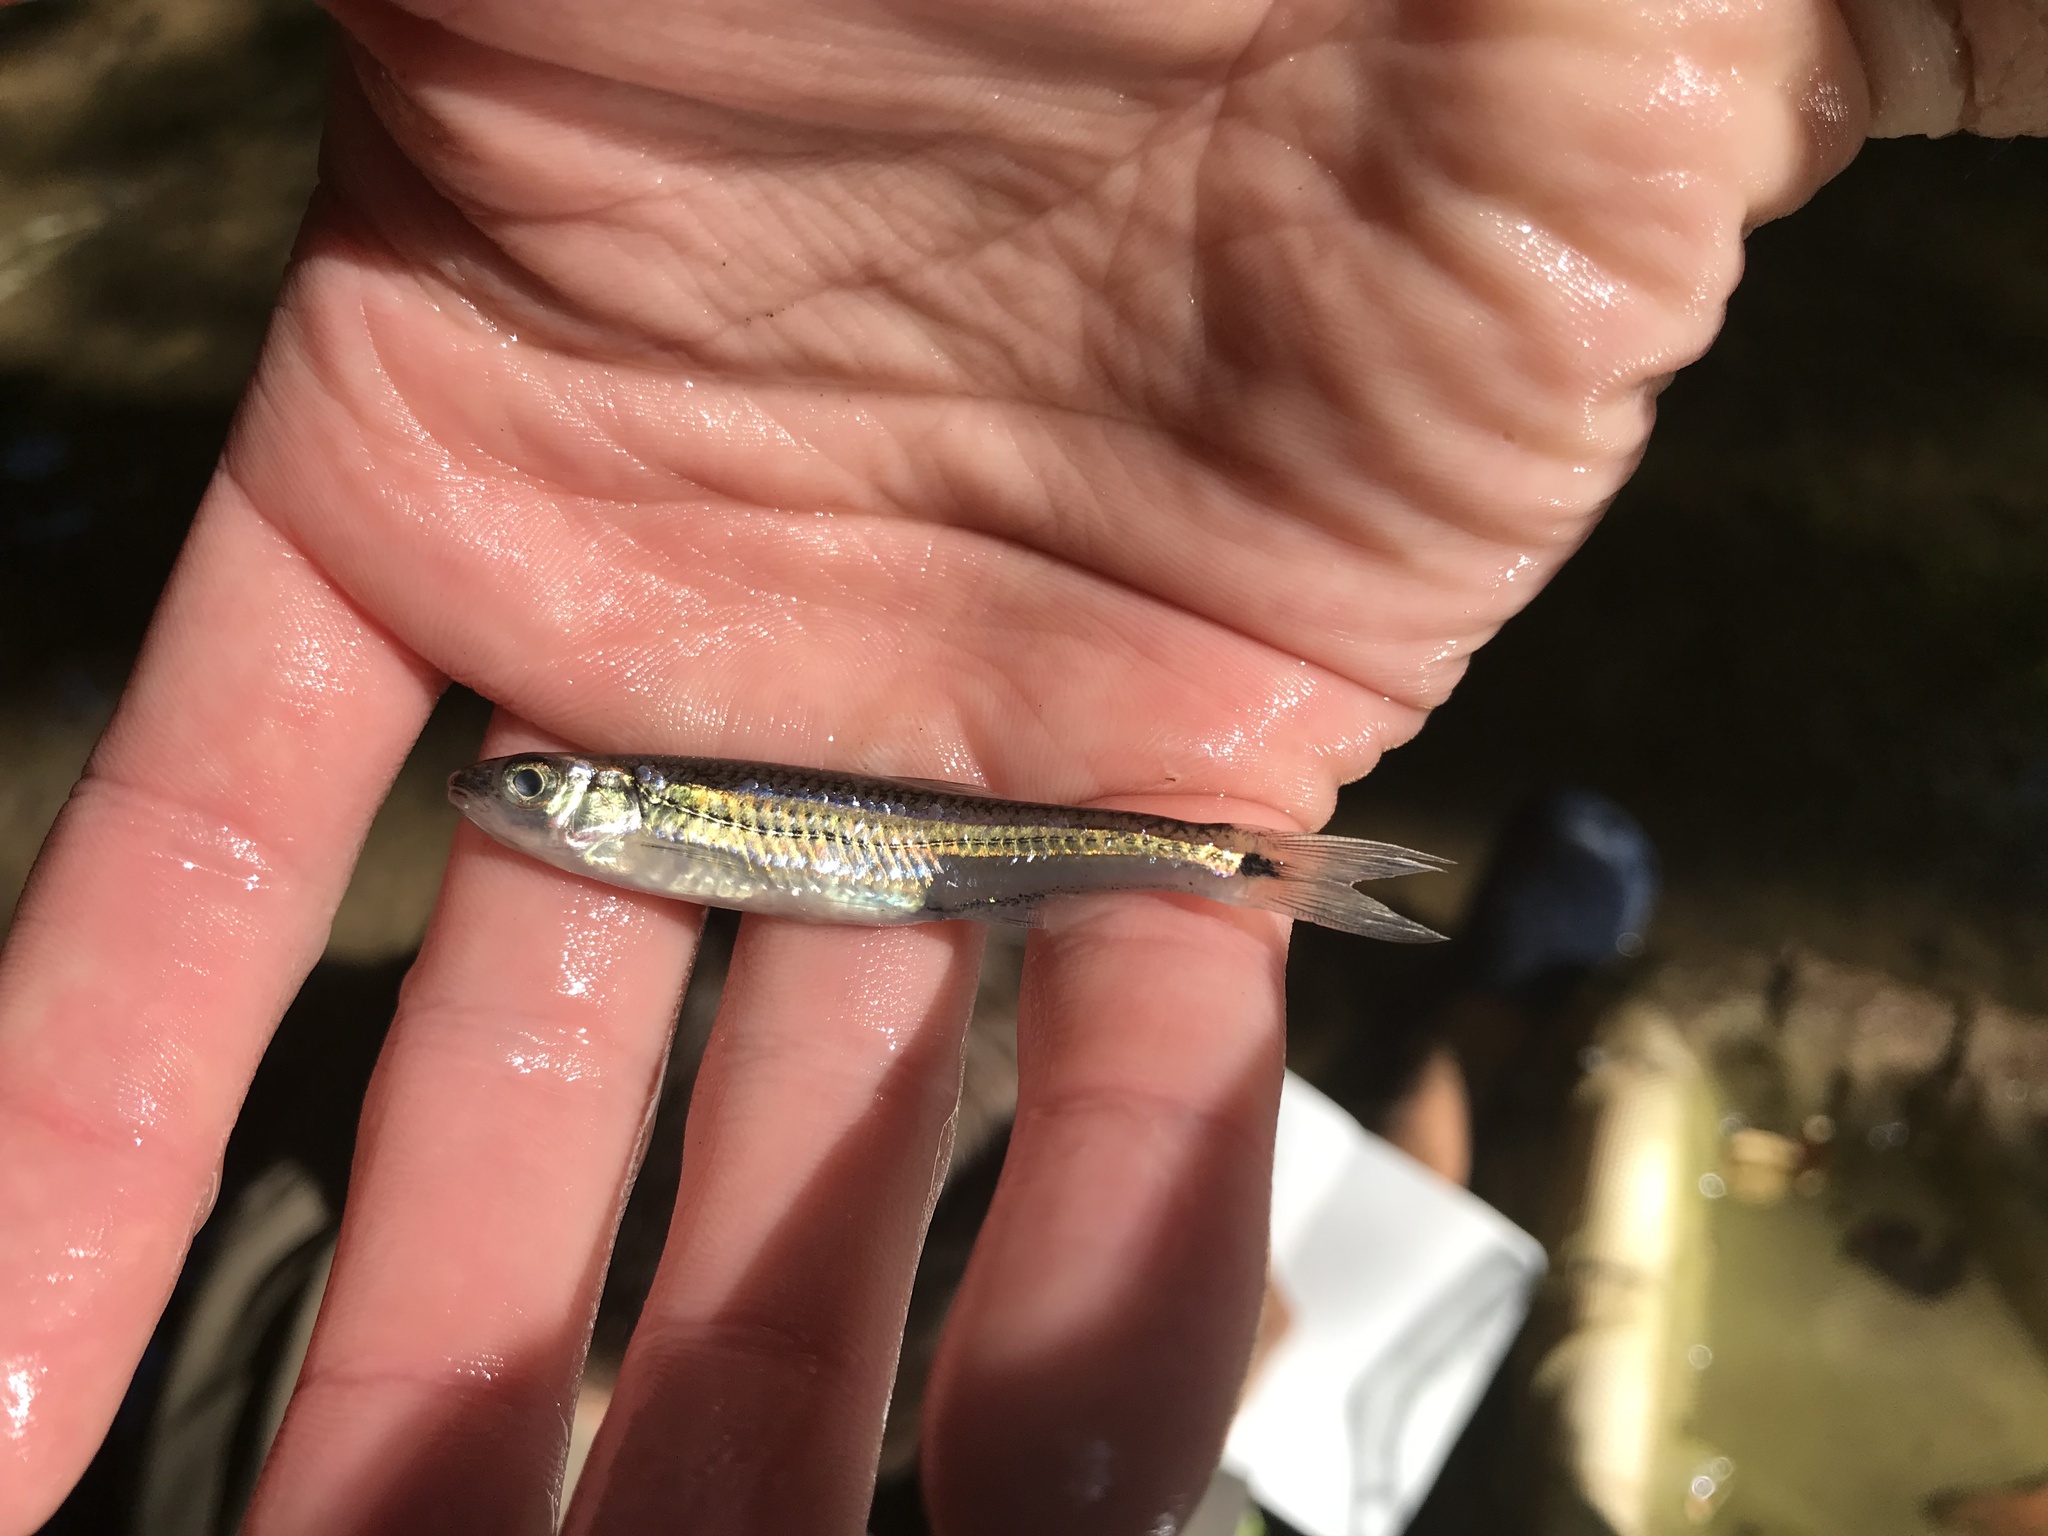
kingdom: Animalia
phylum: Chordata
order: Cypriniformes
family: Cyprinidae
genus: Notropis
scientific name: Notropis
